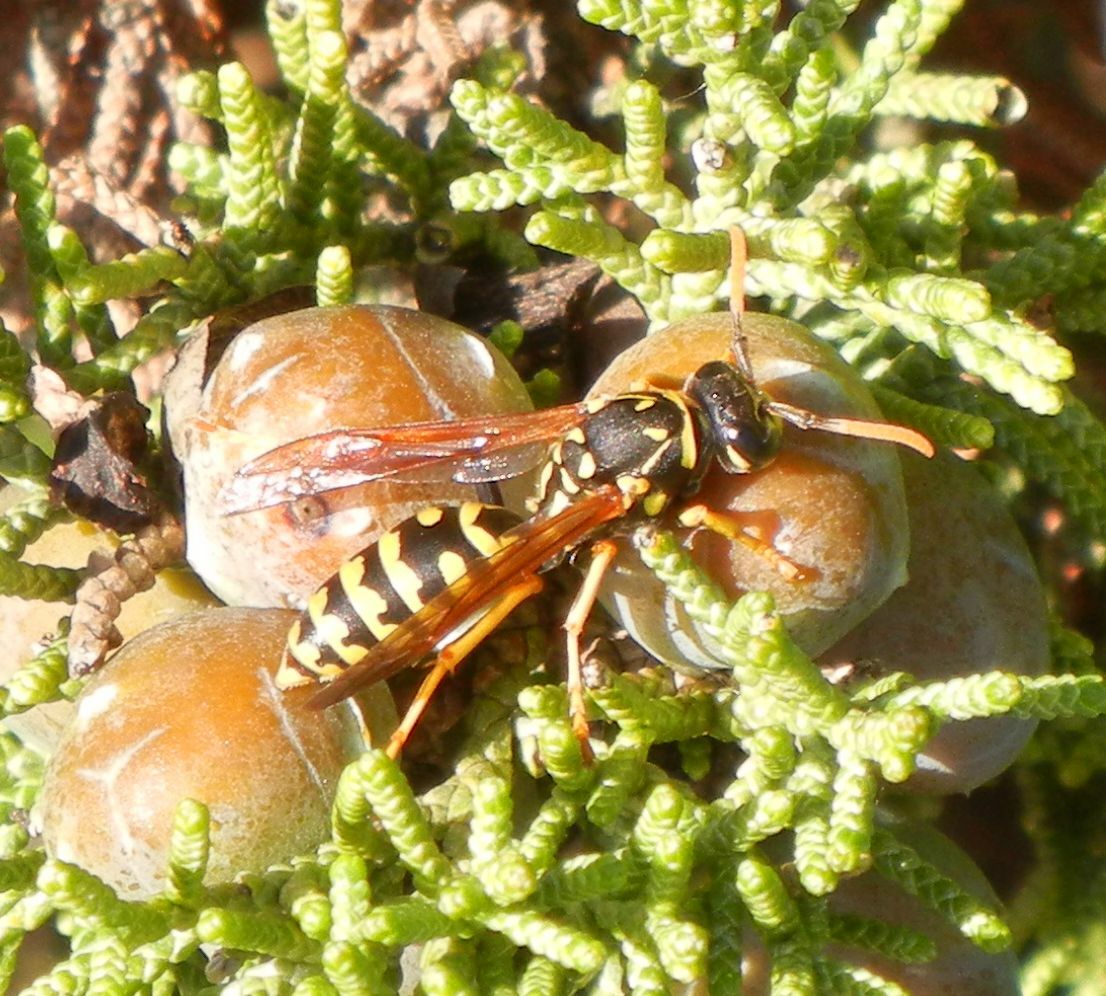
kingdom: Animalia
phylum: Arthropoda
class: Insecta
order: Hymenoptera
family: Eumenidae
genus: Polistes
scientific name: Polistes dominula
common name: Paper wasp
